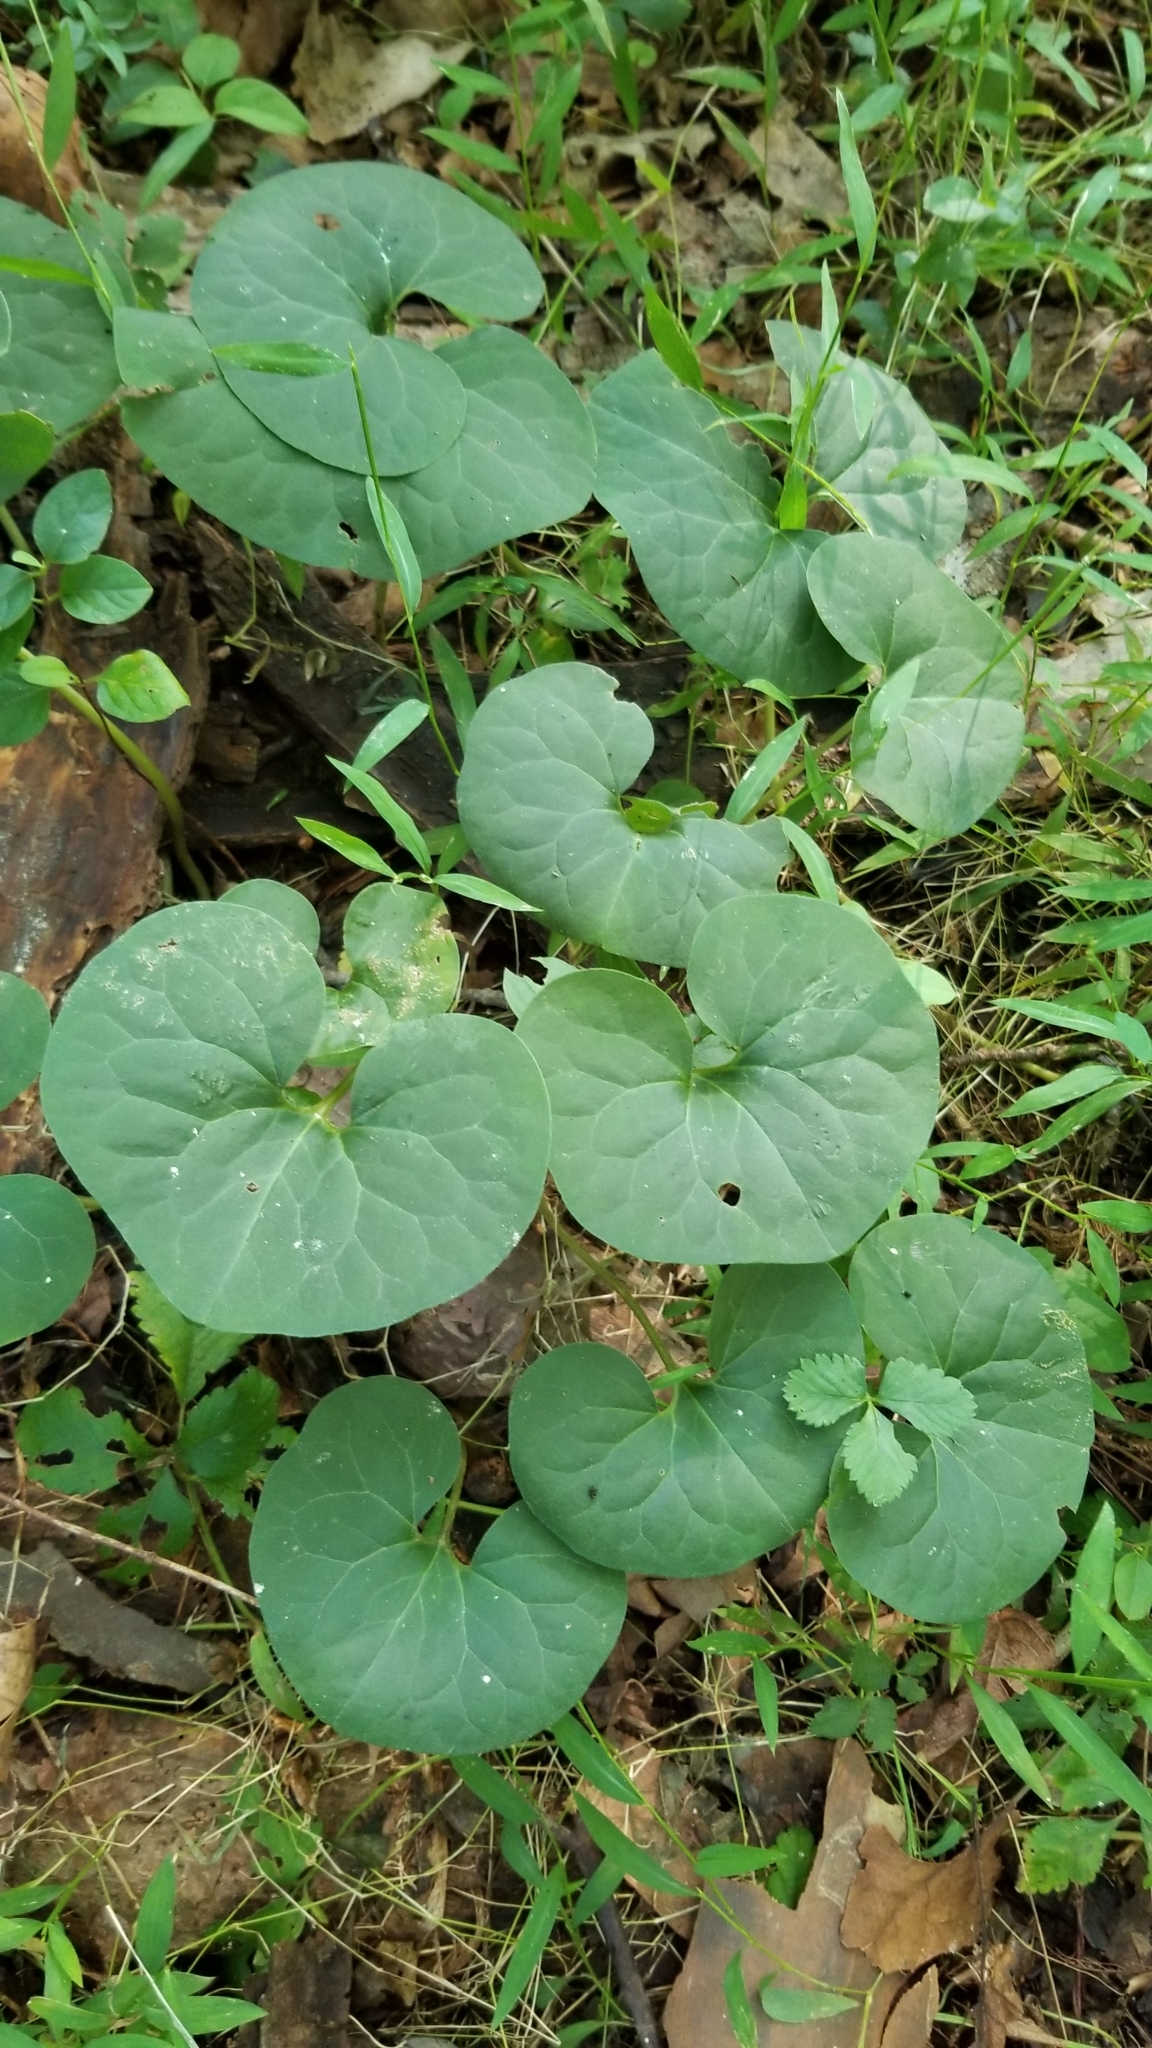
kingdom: Plantae
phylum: Tracheophyta
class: Magnoliopsida
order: Piperales
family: Aristolochiaceae
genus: Asarum
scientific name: Asarum canadense
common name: Wild ginger
